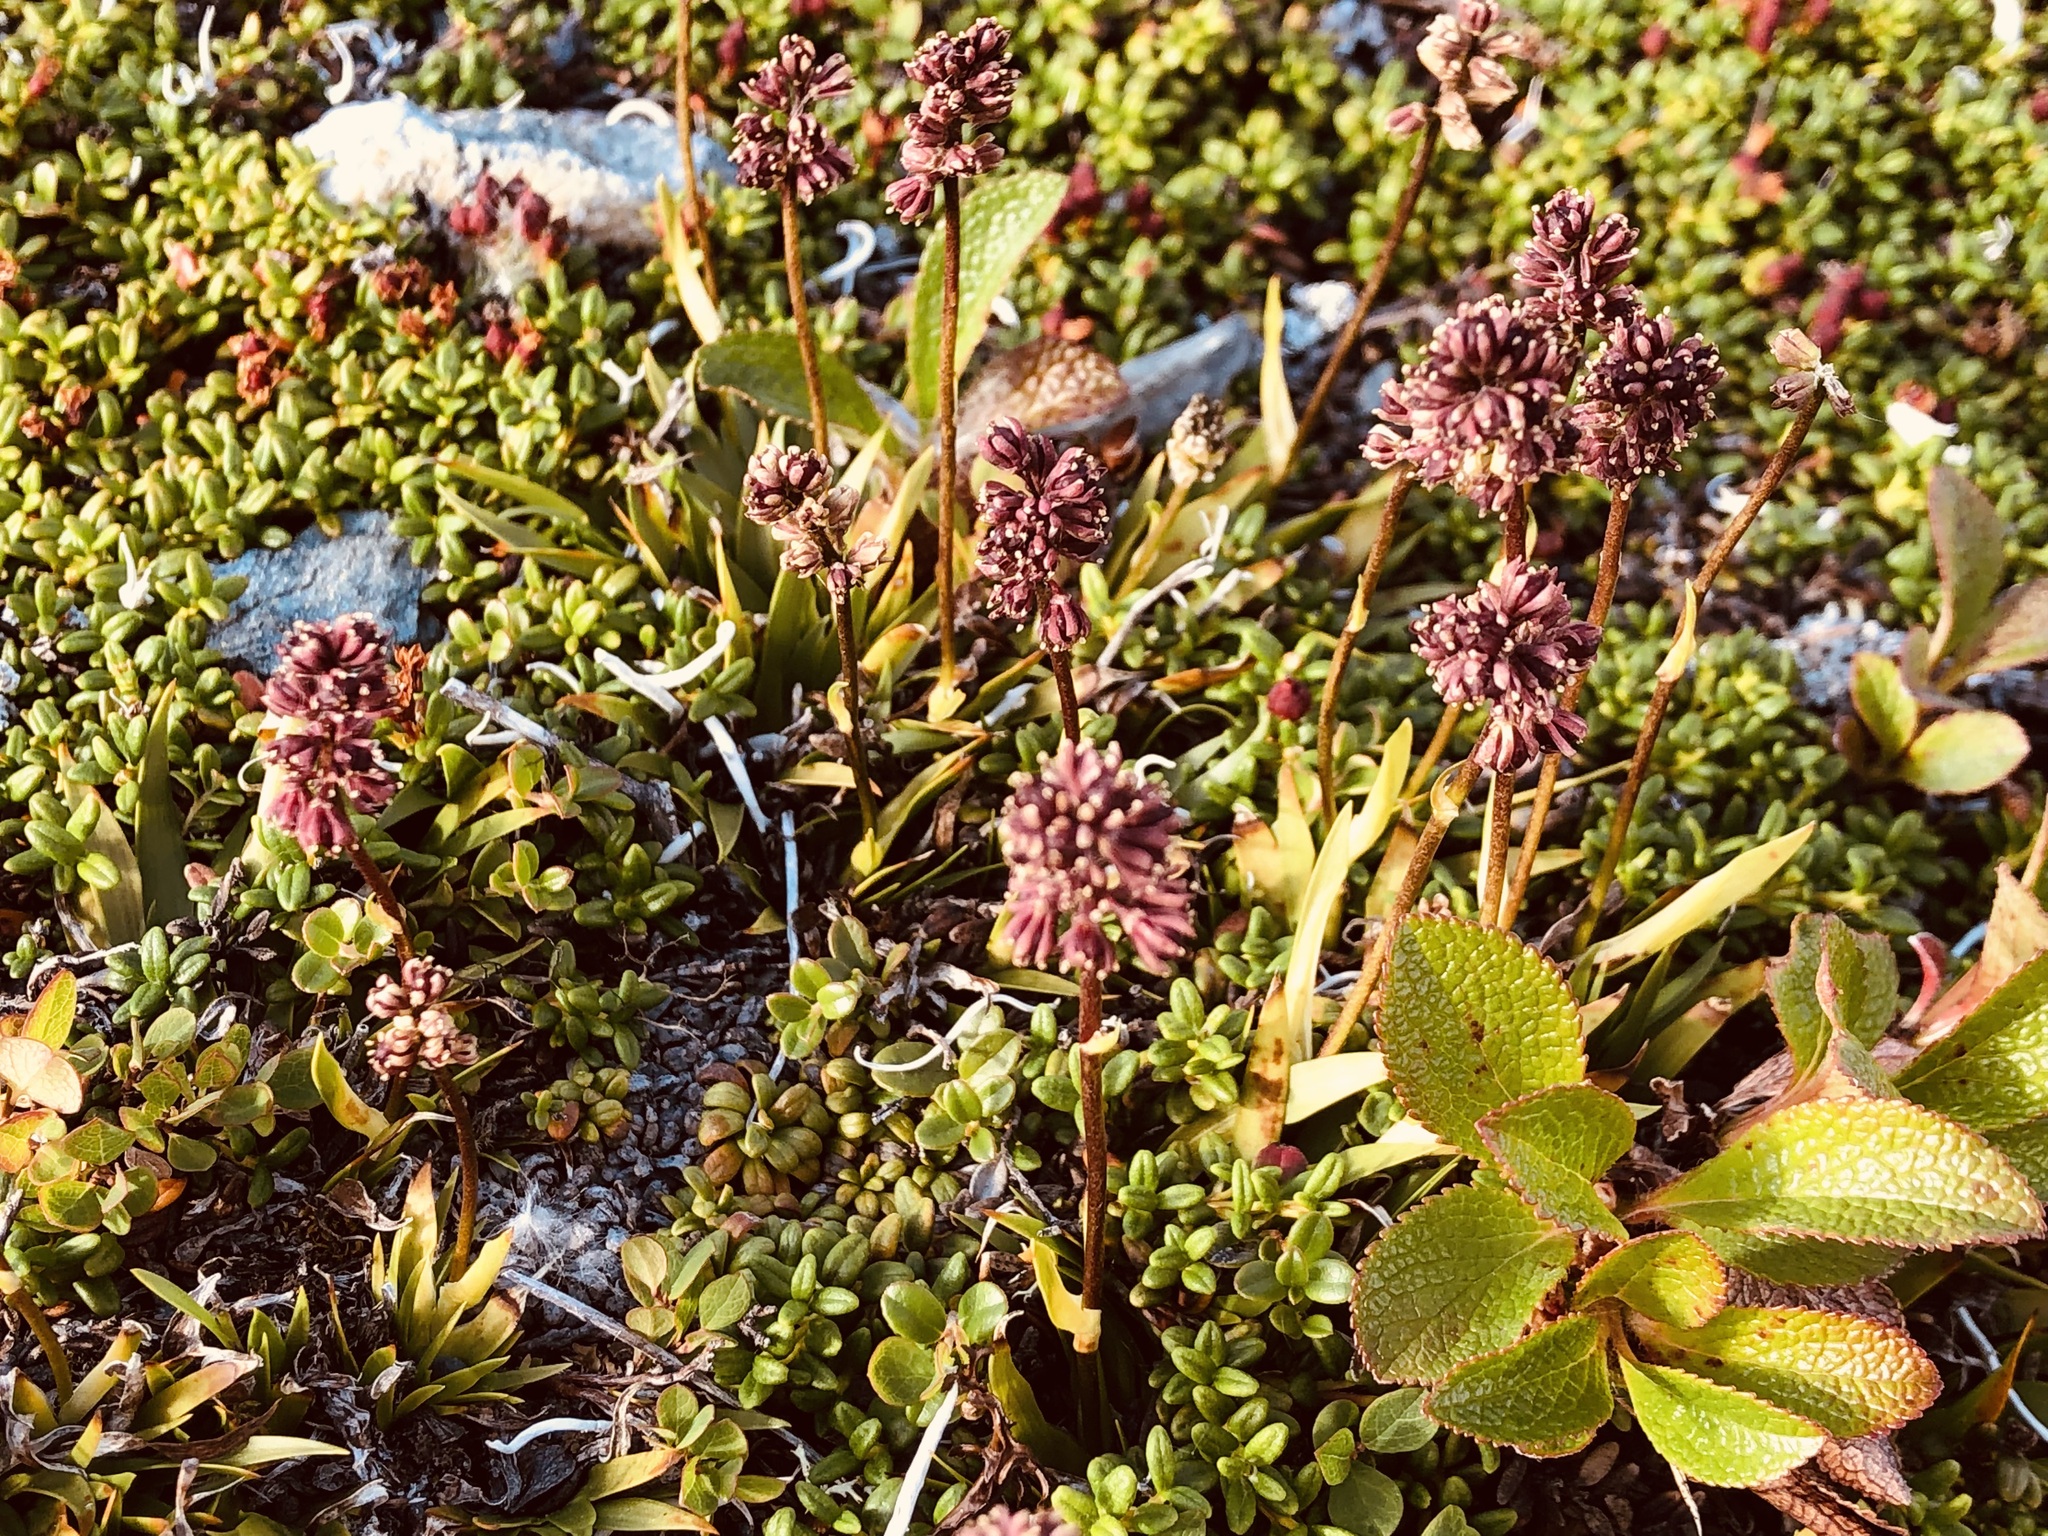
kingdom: Plantae
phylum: Tracheophyta
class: Liliopsida
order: Alismatales
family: Tofieldiaceae
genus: Tofieldia
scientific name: Tofieldia coccinea
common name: Northern false asphodel
